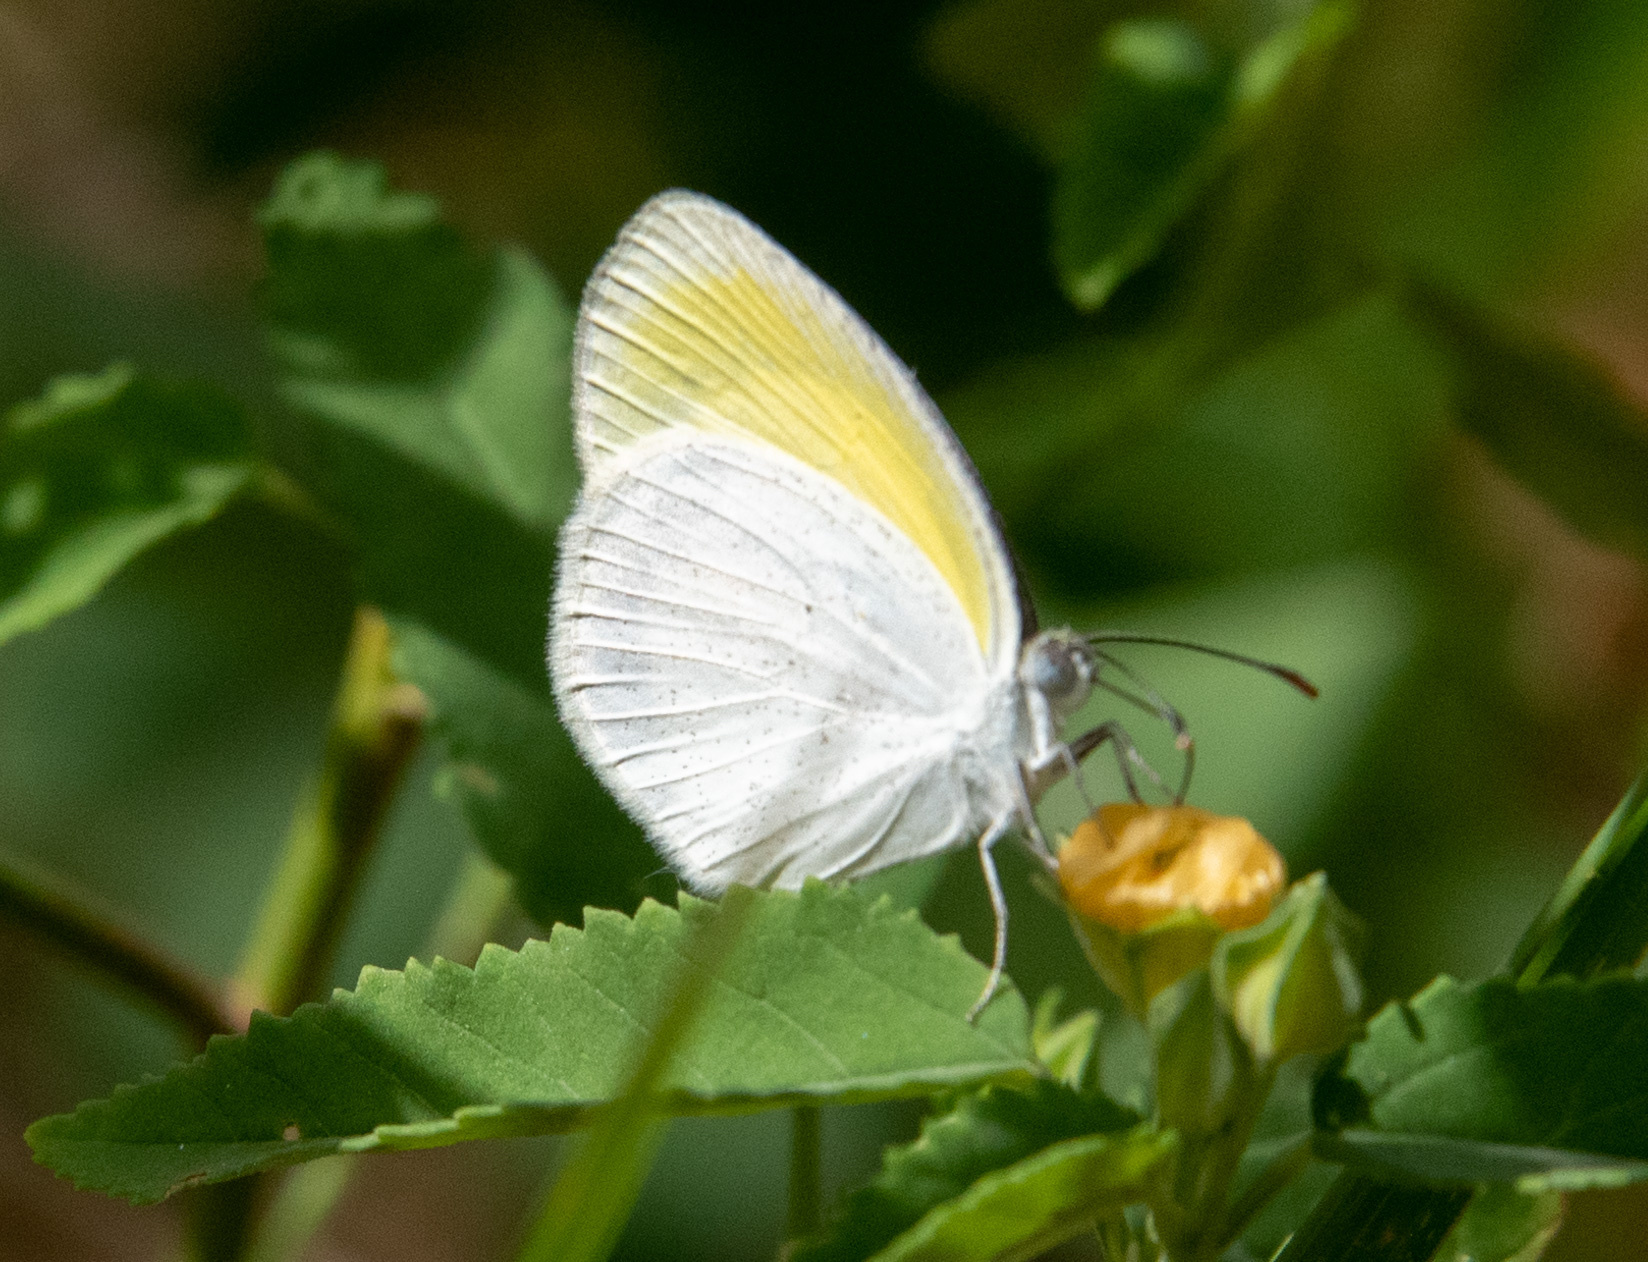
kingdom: Animalia
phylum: Arthropoda
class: Insecta
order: Lepidoptera
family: Pieridae
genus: Eurema
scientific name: Eurema daira
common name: Barred sulphur
